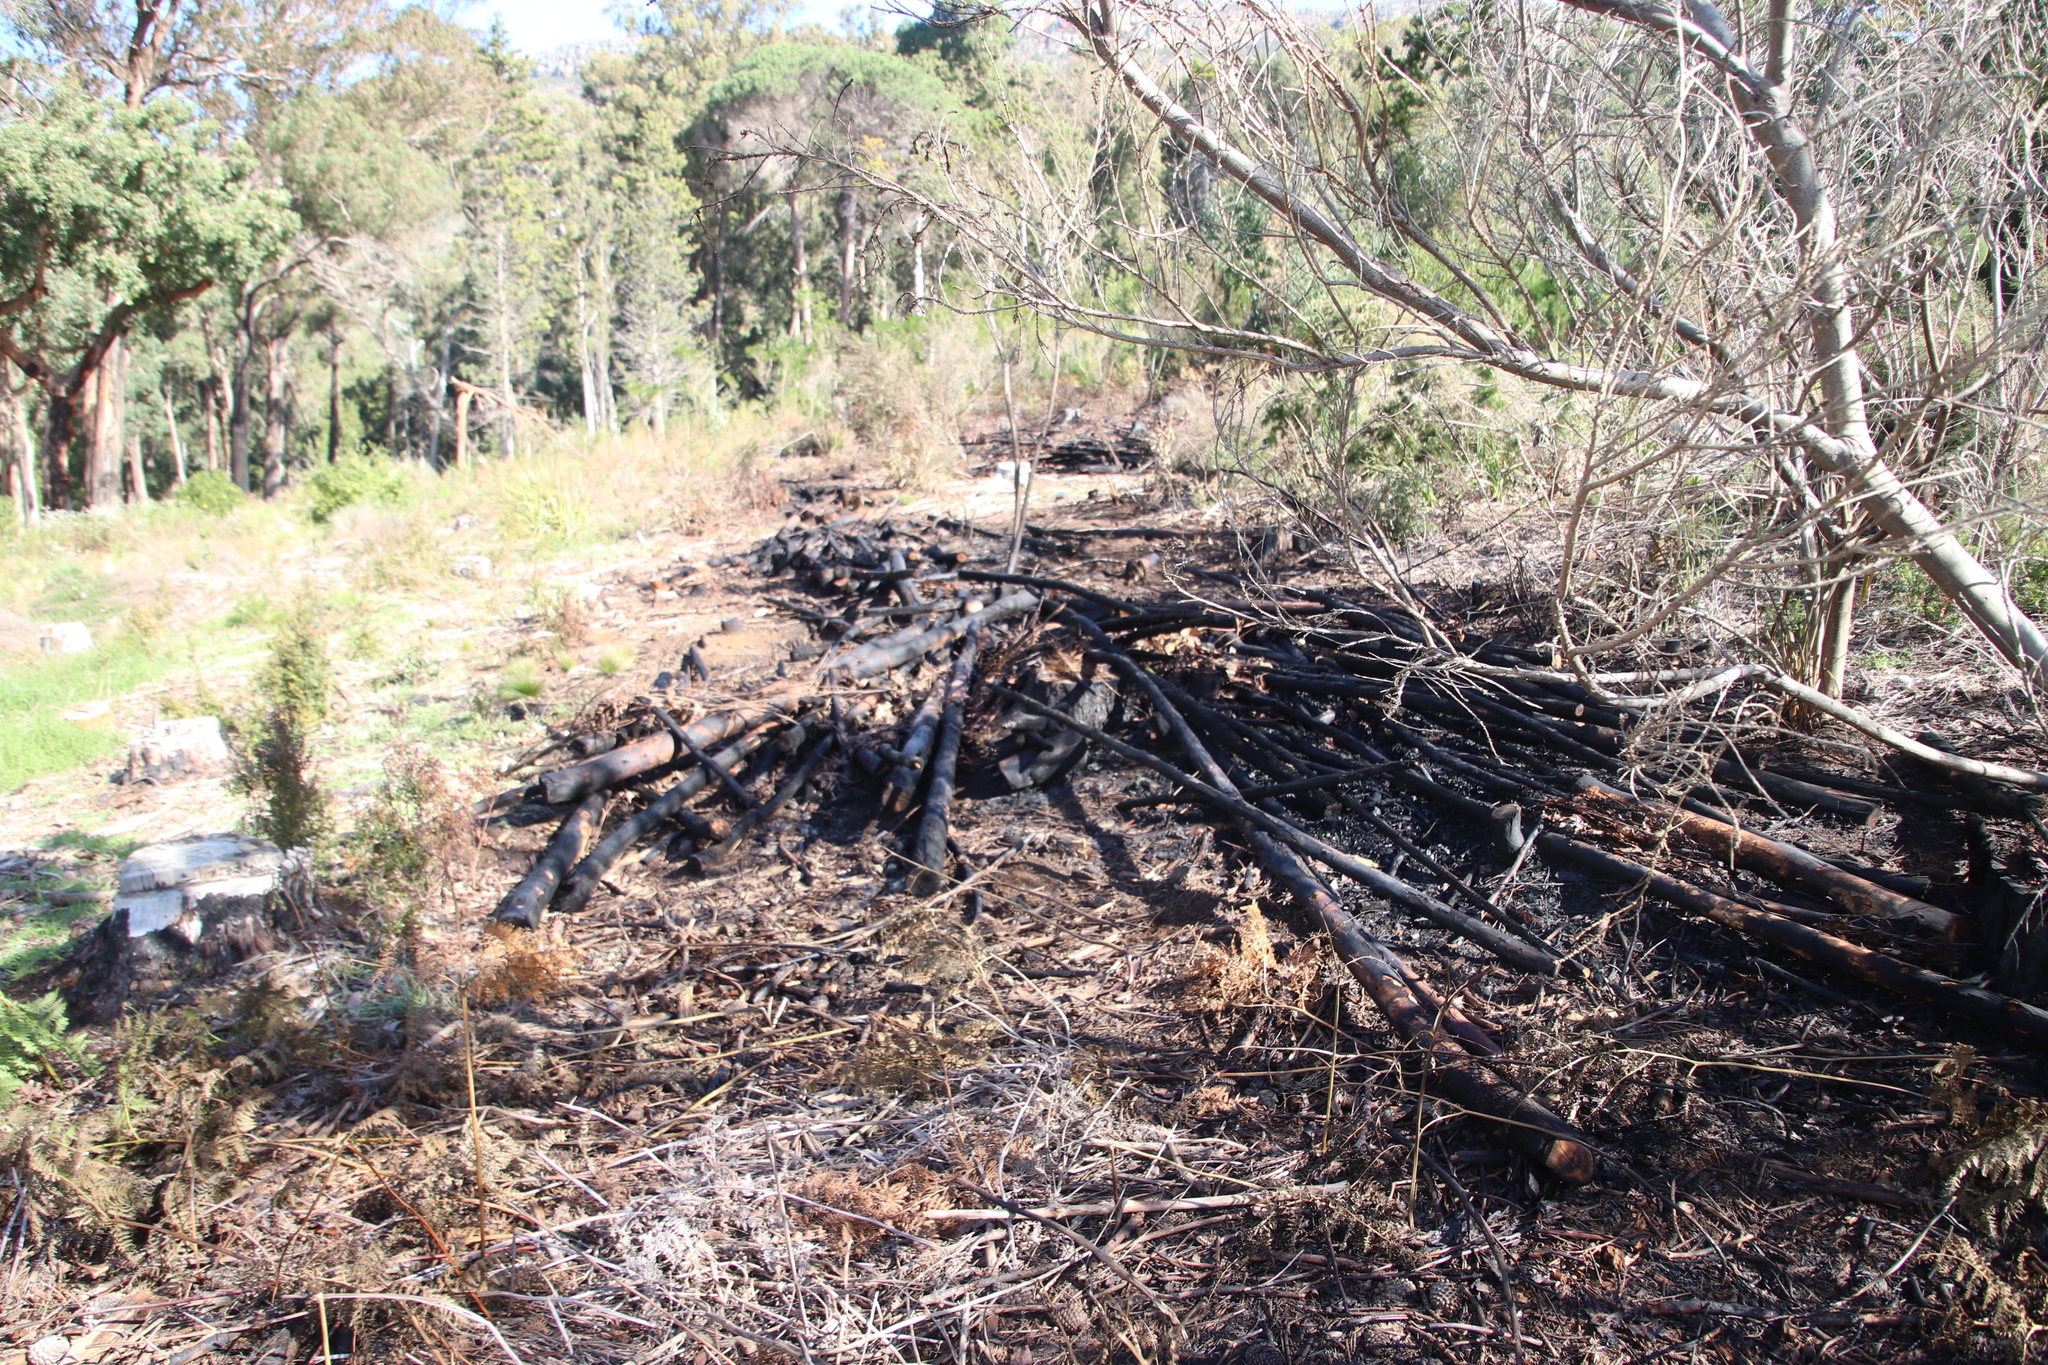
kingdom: Plantae
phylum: Tracheophyta
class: Magnoliopsida
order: Fabales
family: Fabaceae
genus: Psoralea
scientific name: Psoralea pinnata
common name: African scurfpea
